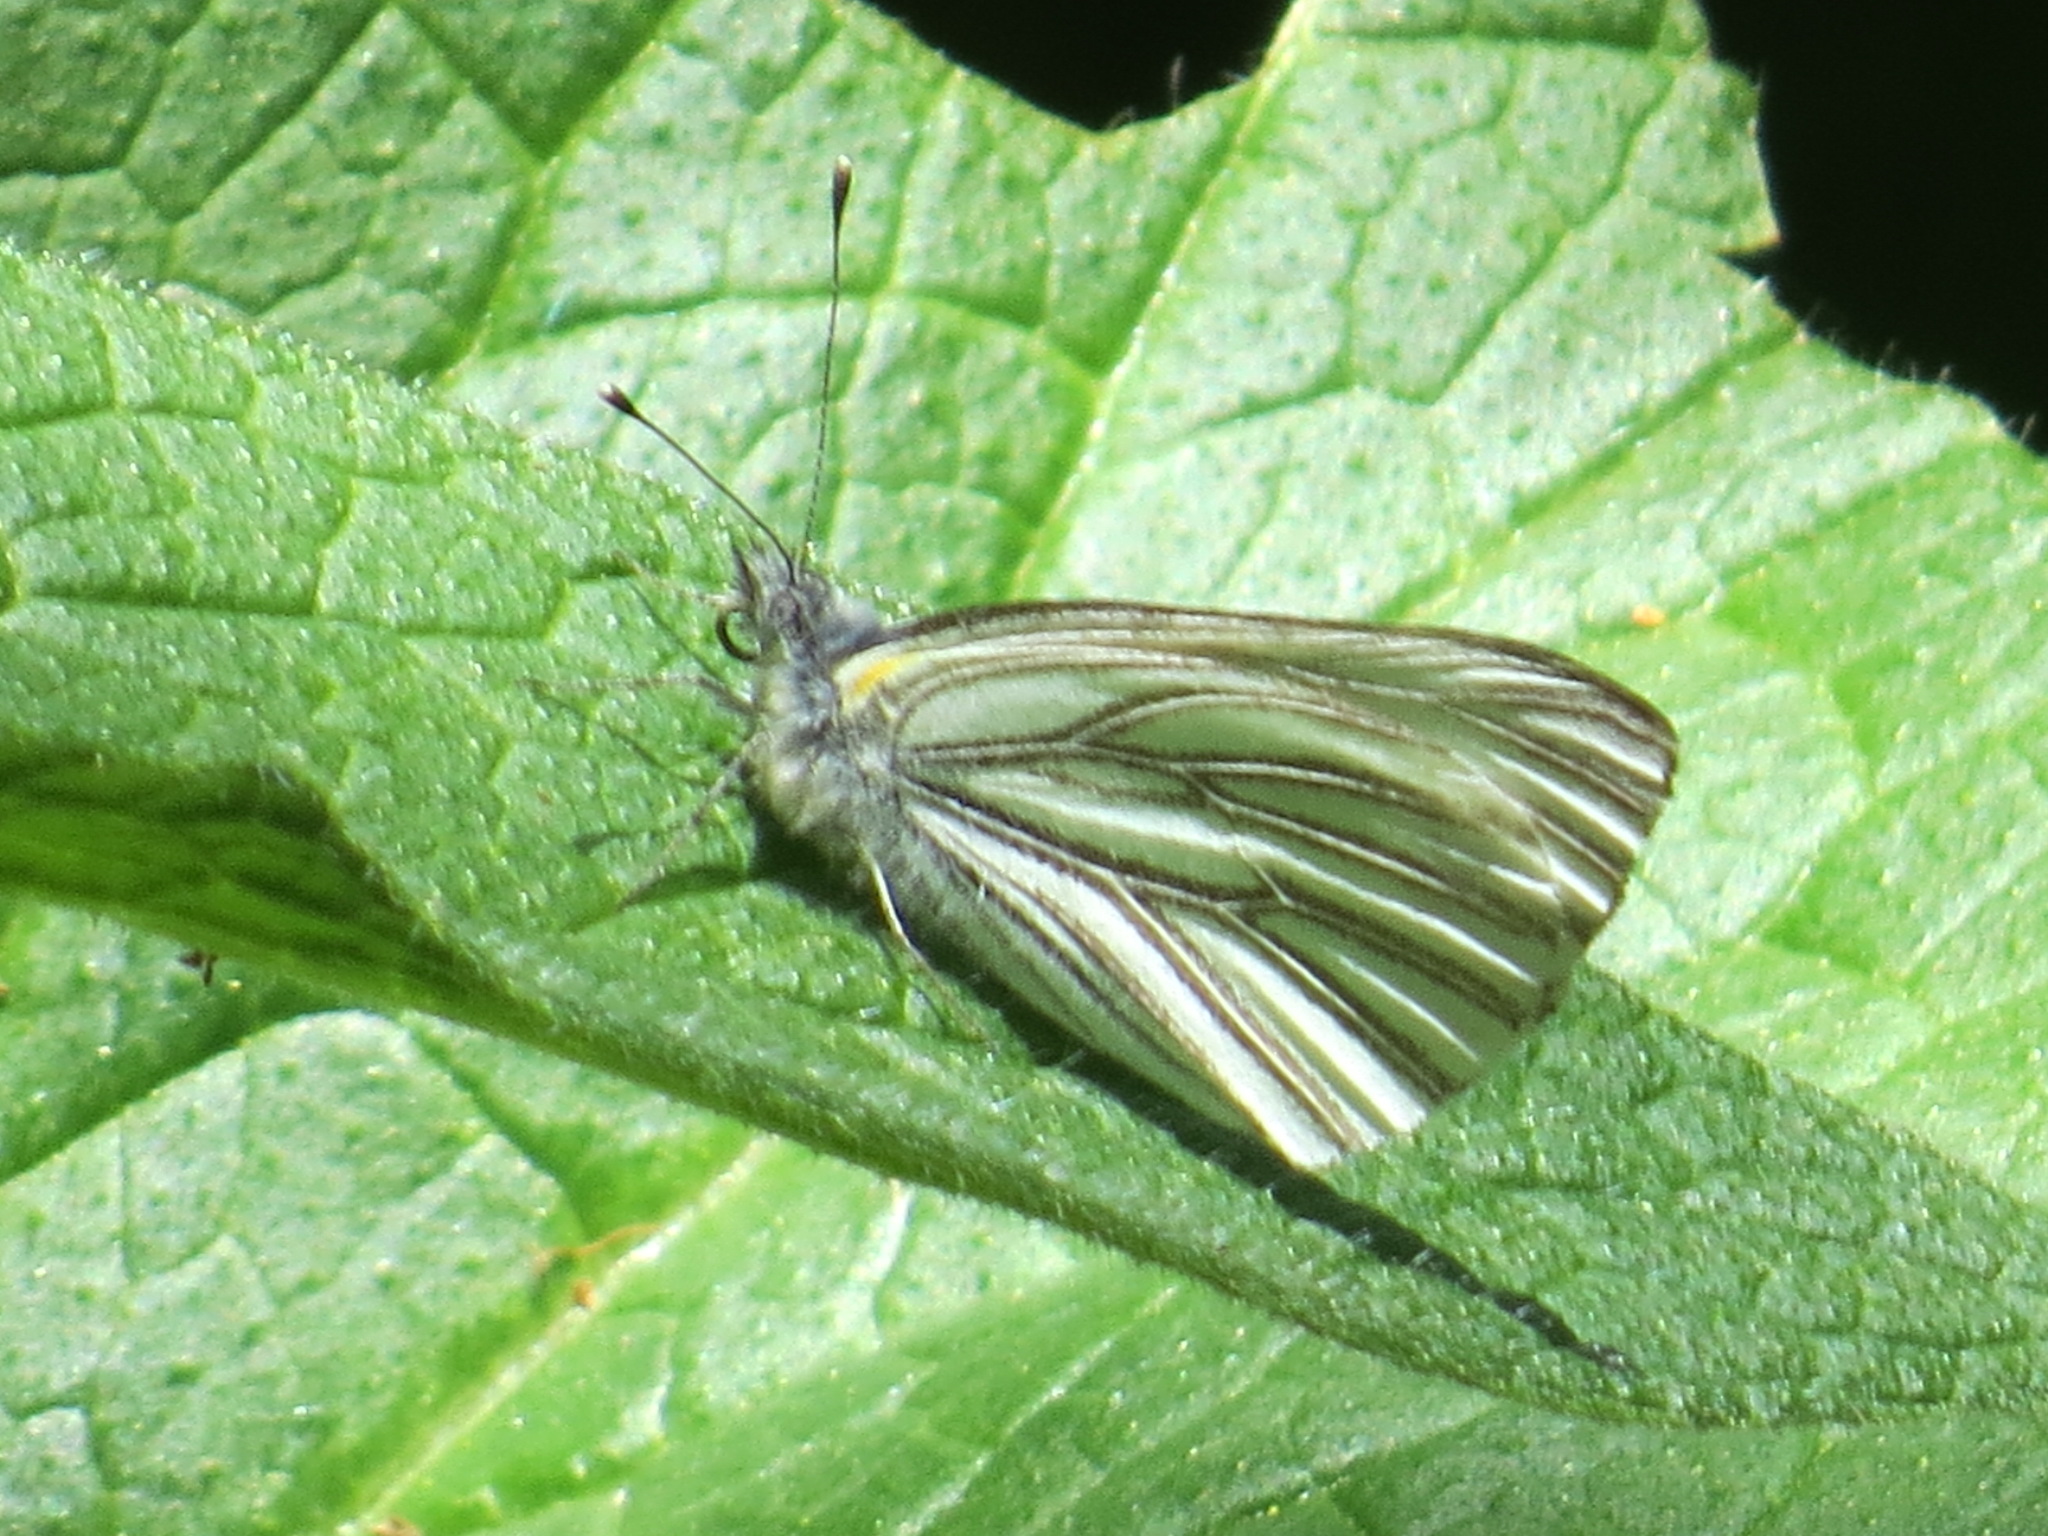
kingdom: Animalia
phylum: Arthropoda
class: Insecta
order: Lepidoptera
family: Pieridae
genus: Pieris
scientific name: Pieris marginalis
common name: Margined white
